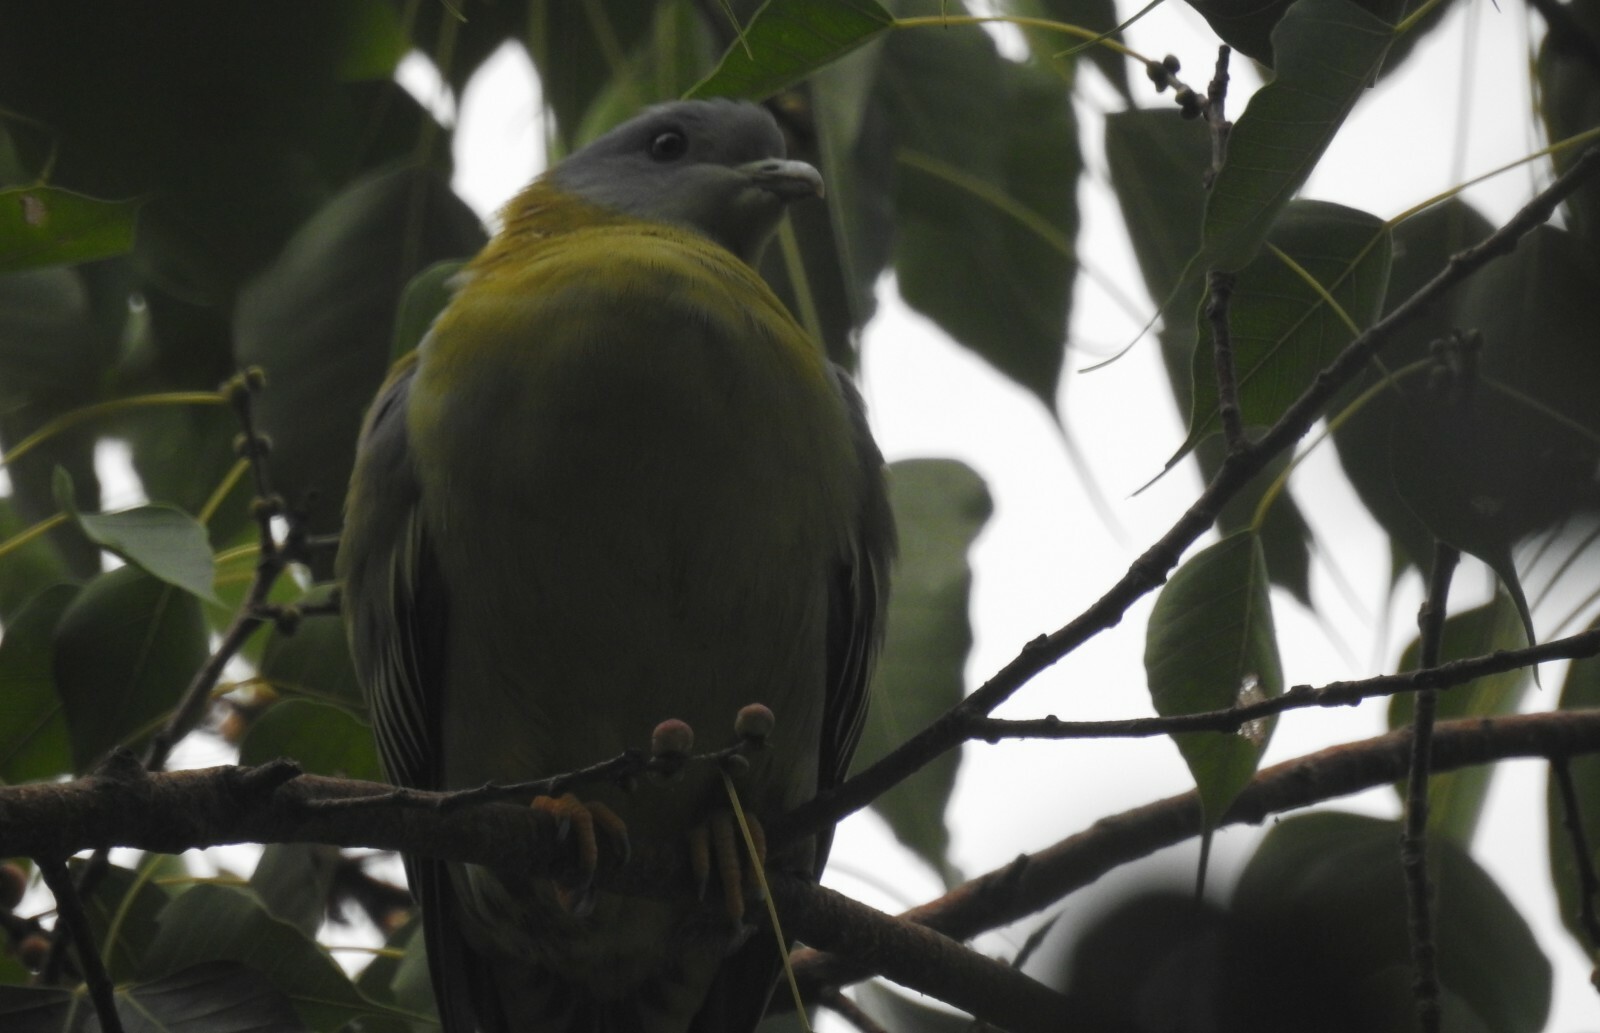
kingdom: Animalia
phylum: Chordata
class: Aves
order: Columbiformes
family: Columbidae
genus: Treron
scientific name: Treron phoenicopterus
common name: Yellow-footed green pigeon
